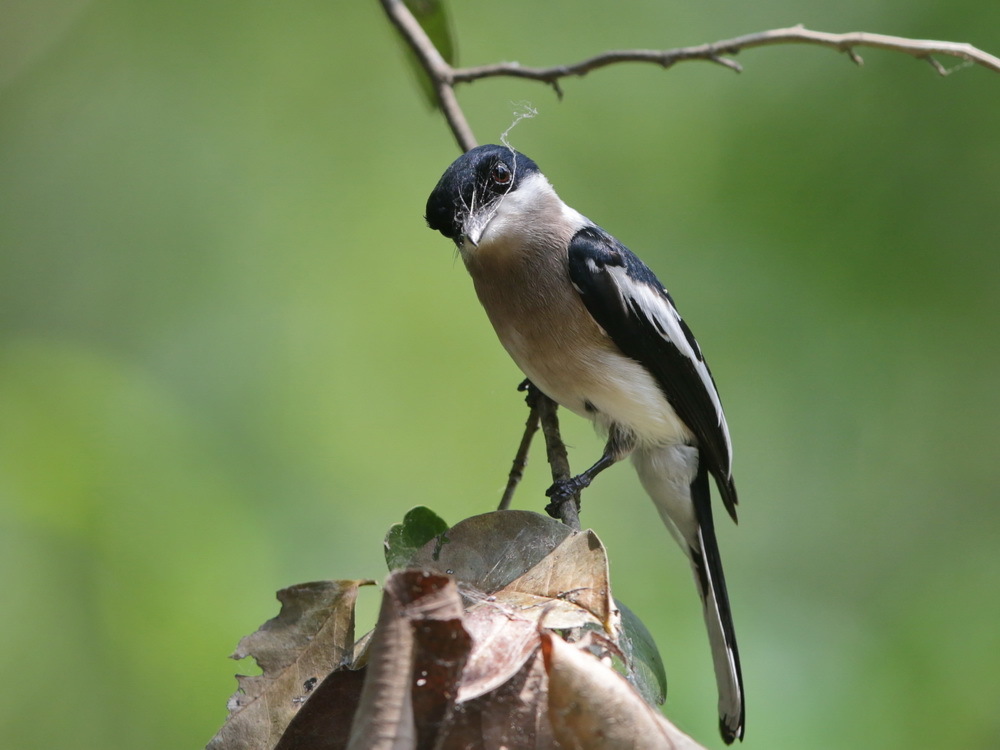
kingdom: Animalia
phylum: Chordata
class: Aves
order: Passeriformes
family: Tephrodornithidae
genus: Hemipus
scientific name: Hemipus picatus
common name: Bar-winged flycatcher-shrike
